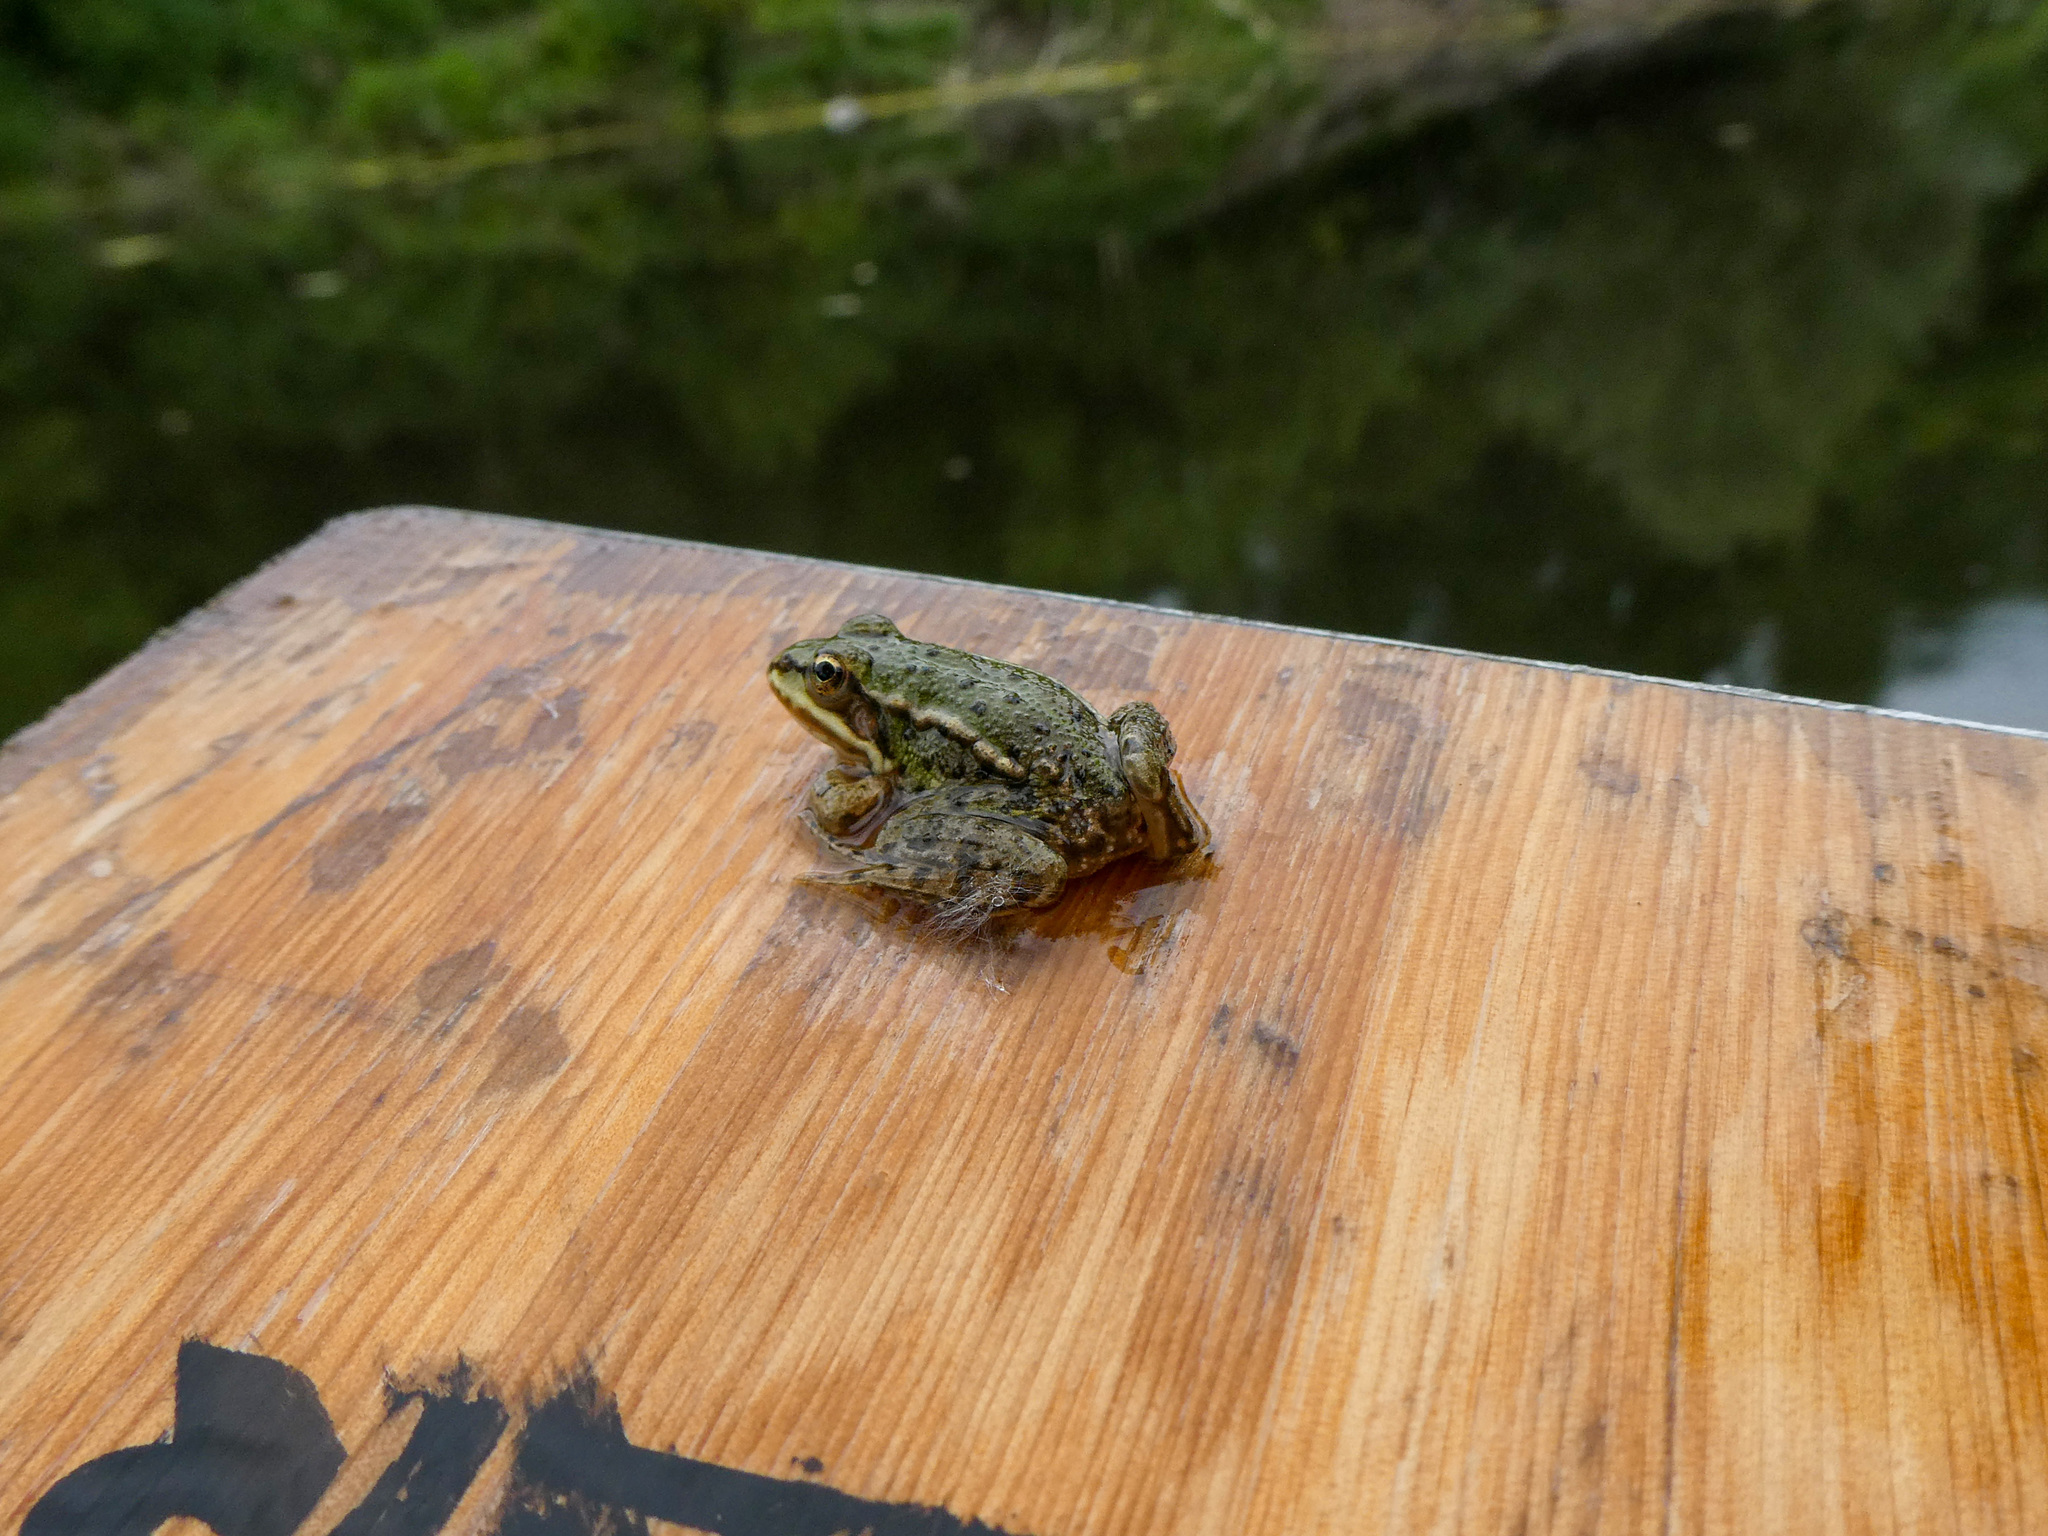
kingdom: Animalia
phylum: Chordata
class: Amphibia
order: Anura
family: Ranidae
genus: Pelophylax
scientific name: Pelophylax
